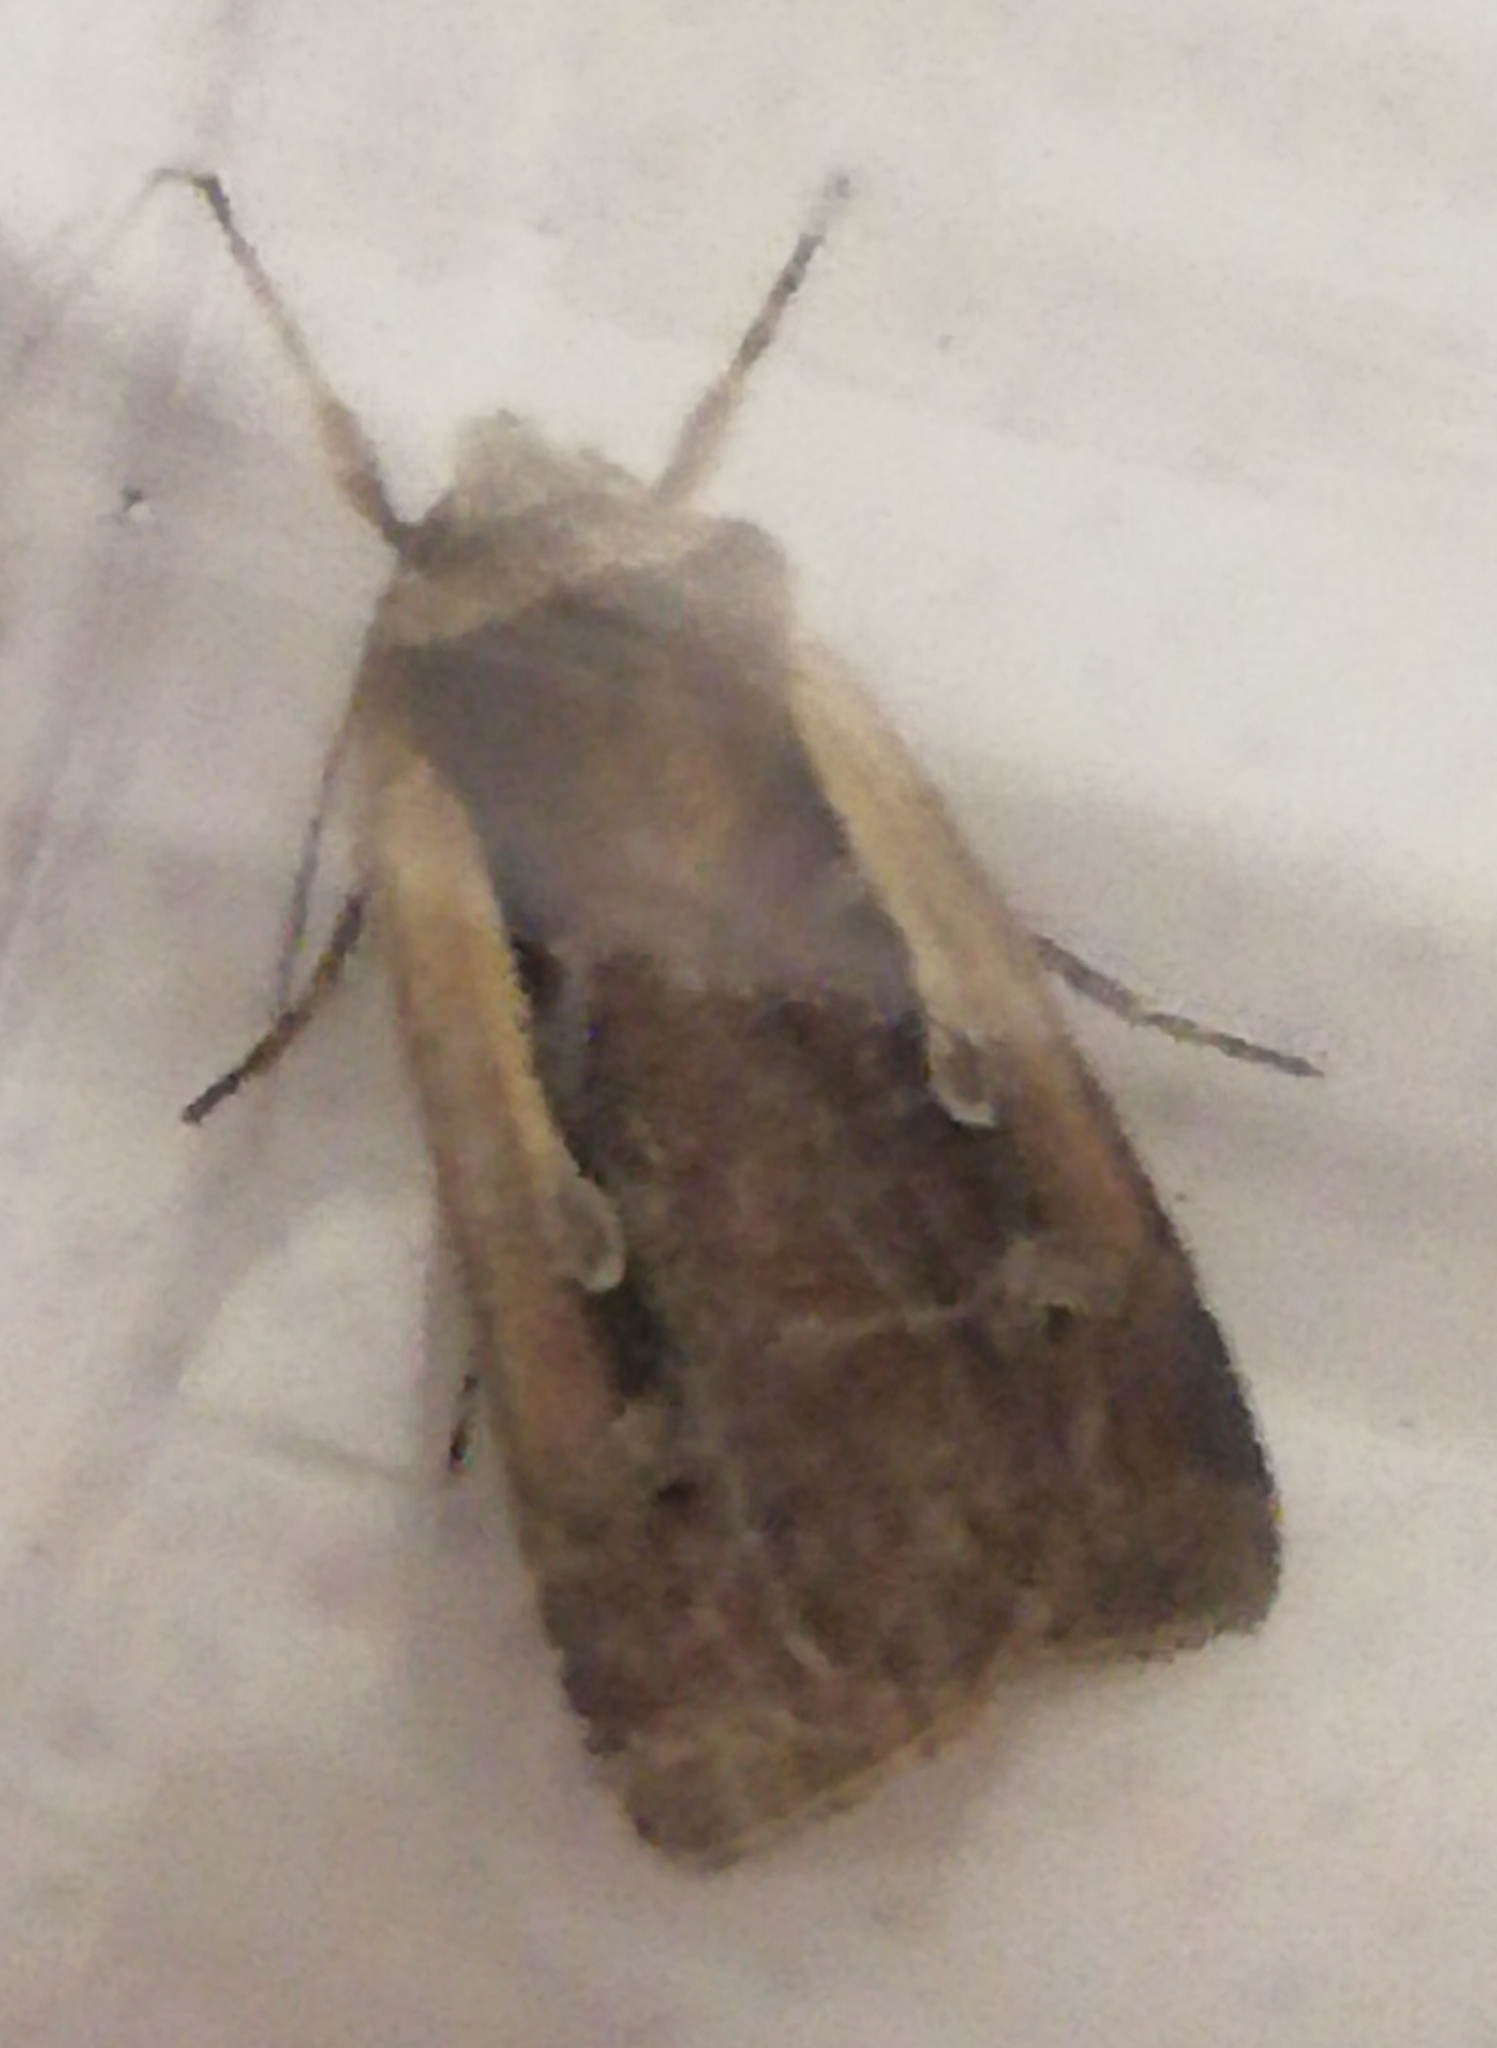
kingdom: Animalia
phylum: Arthropoda
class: Insecta
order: Lepidoptera
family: Noctuidae
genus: Ochropleura
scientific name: Ochropleura plecta
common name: Flame shoulder
